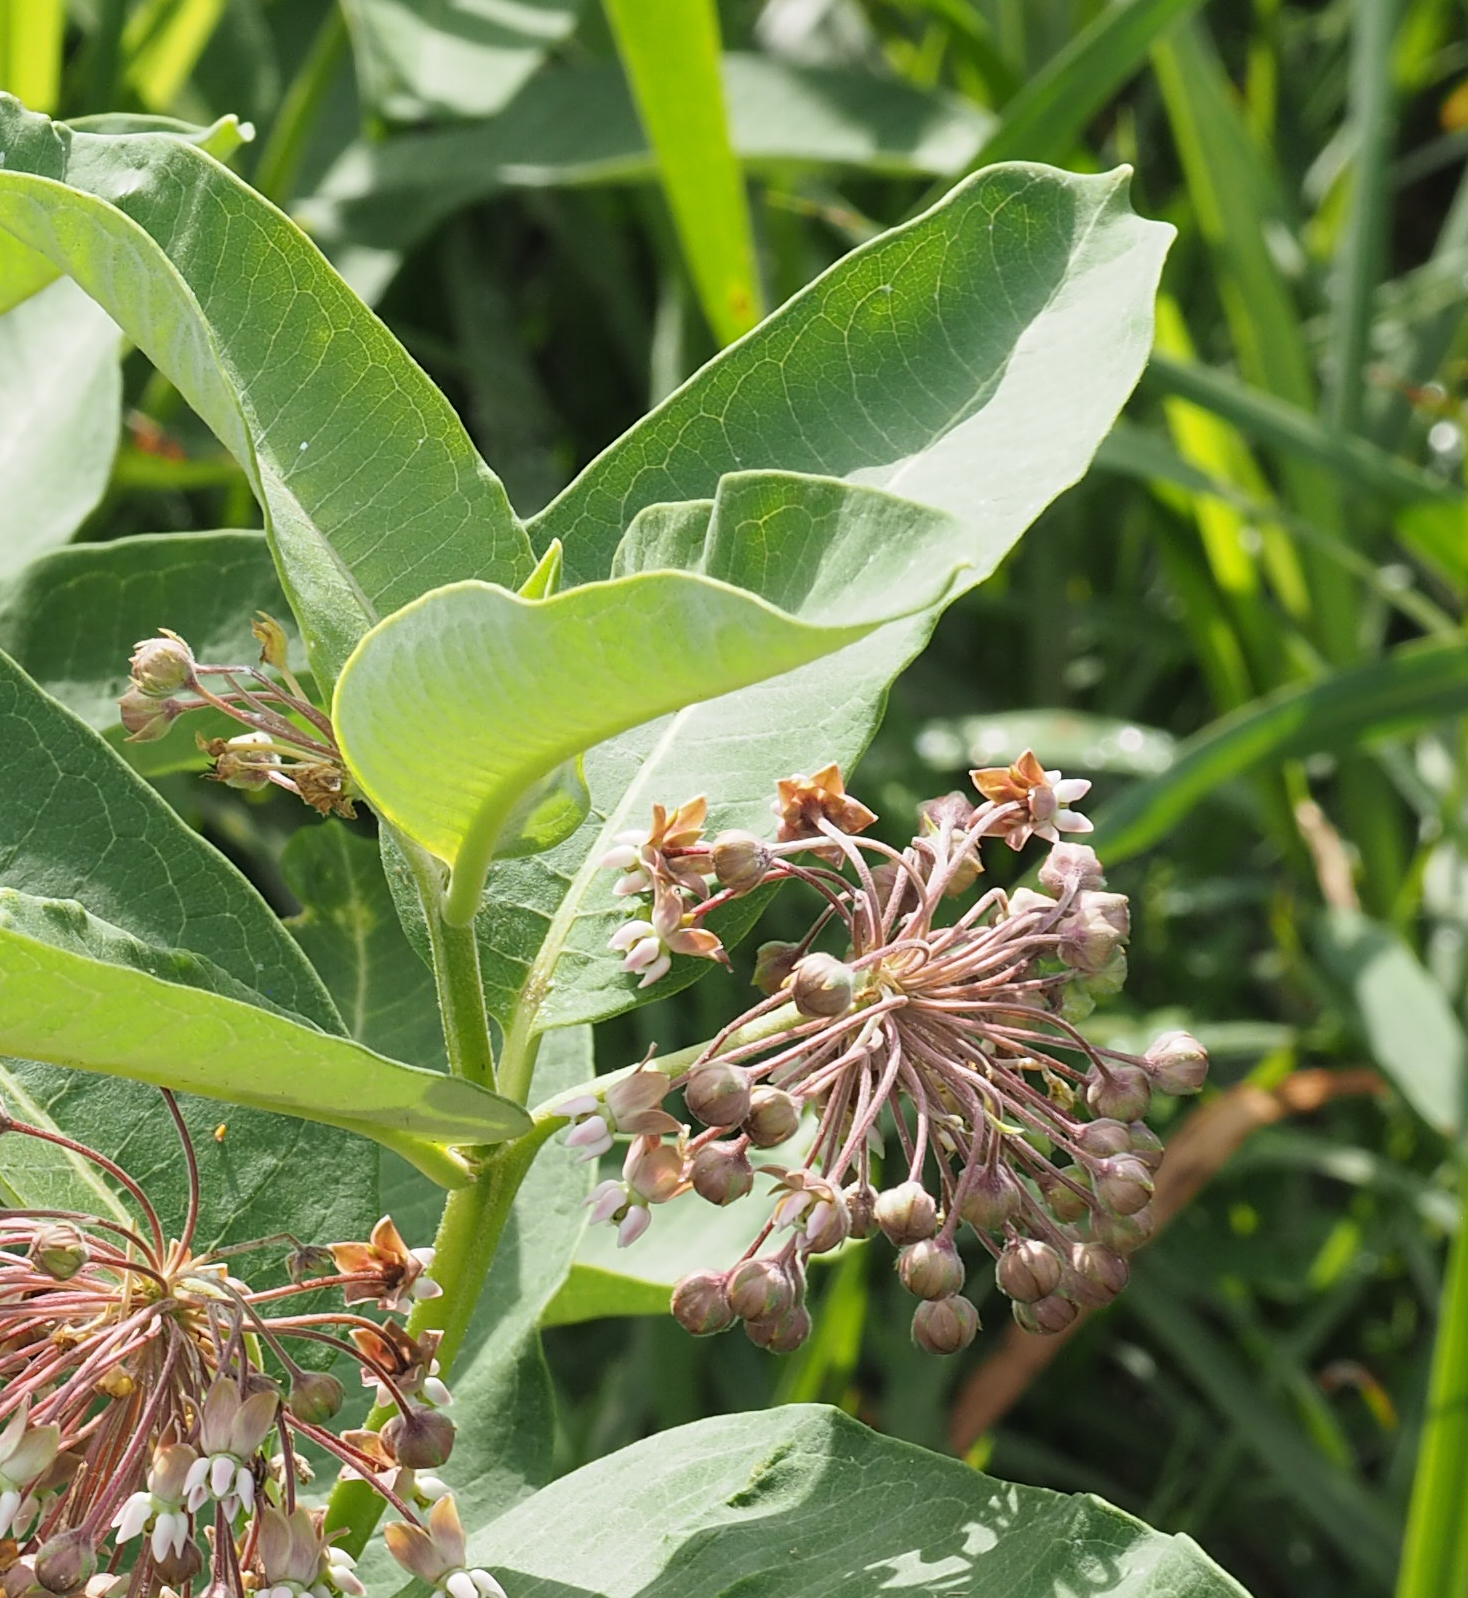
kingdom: Plantae
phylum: Tracheophyta
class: Magnoliopsida
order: Gentianales
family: Apocynaceae
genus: Asclepias
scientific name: Asclepias syriaca
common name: Common milkweed
